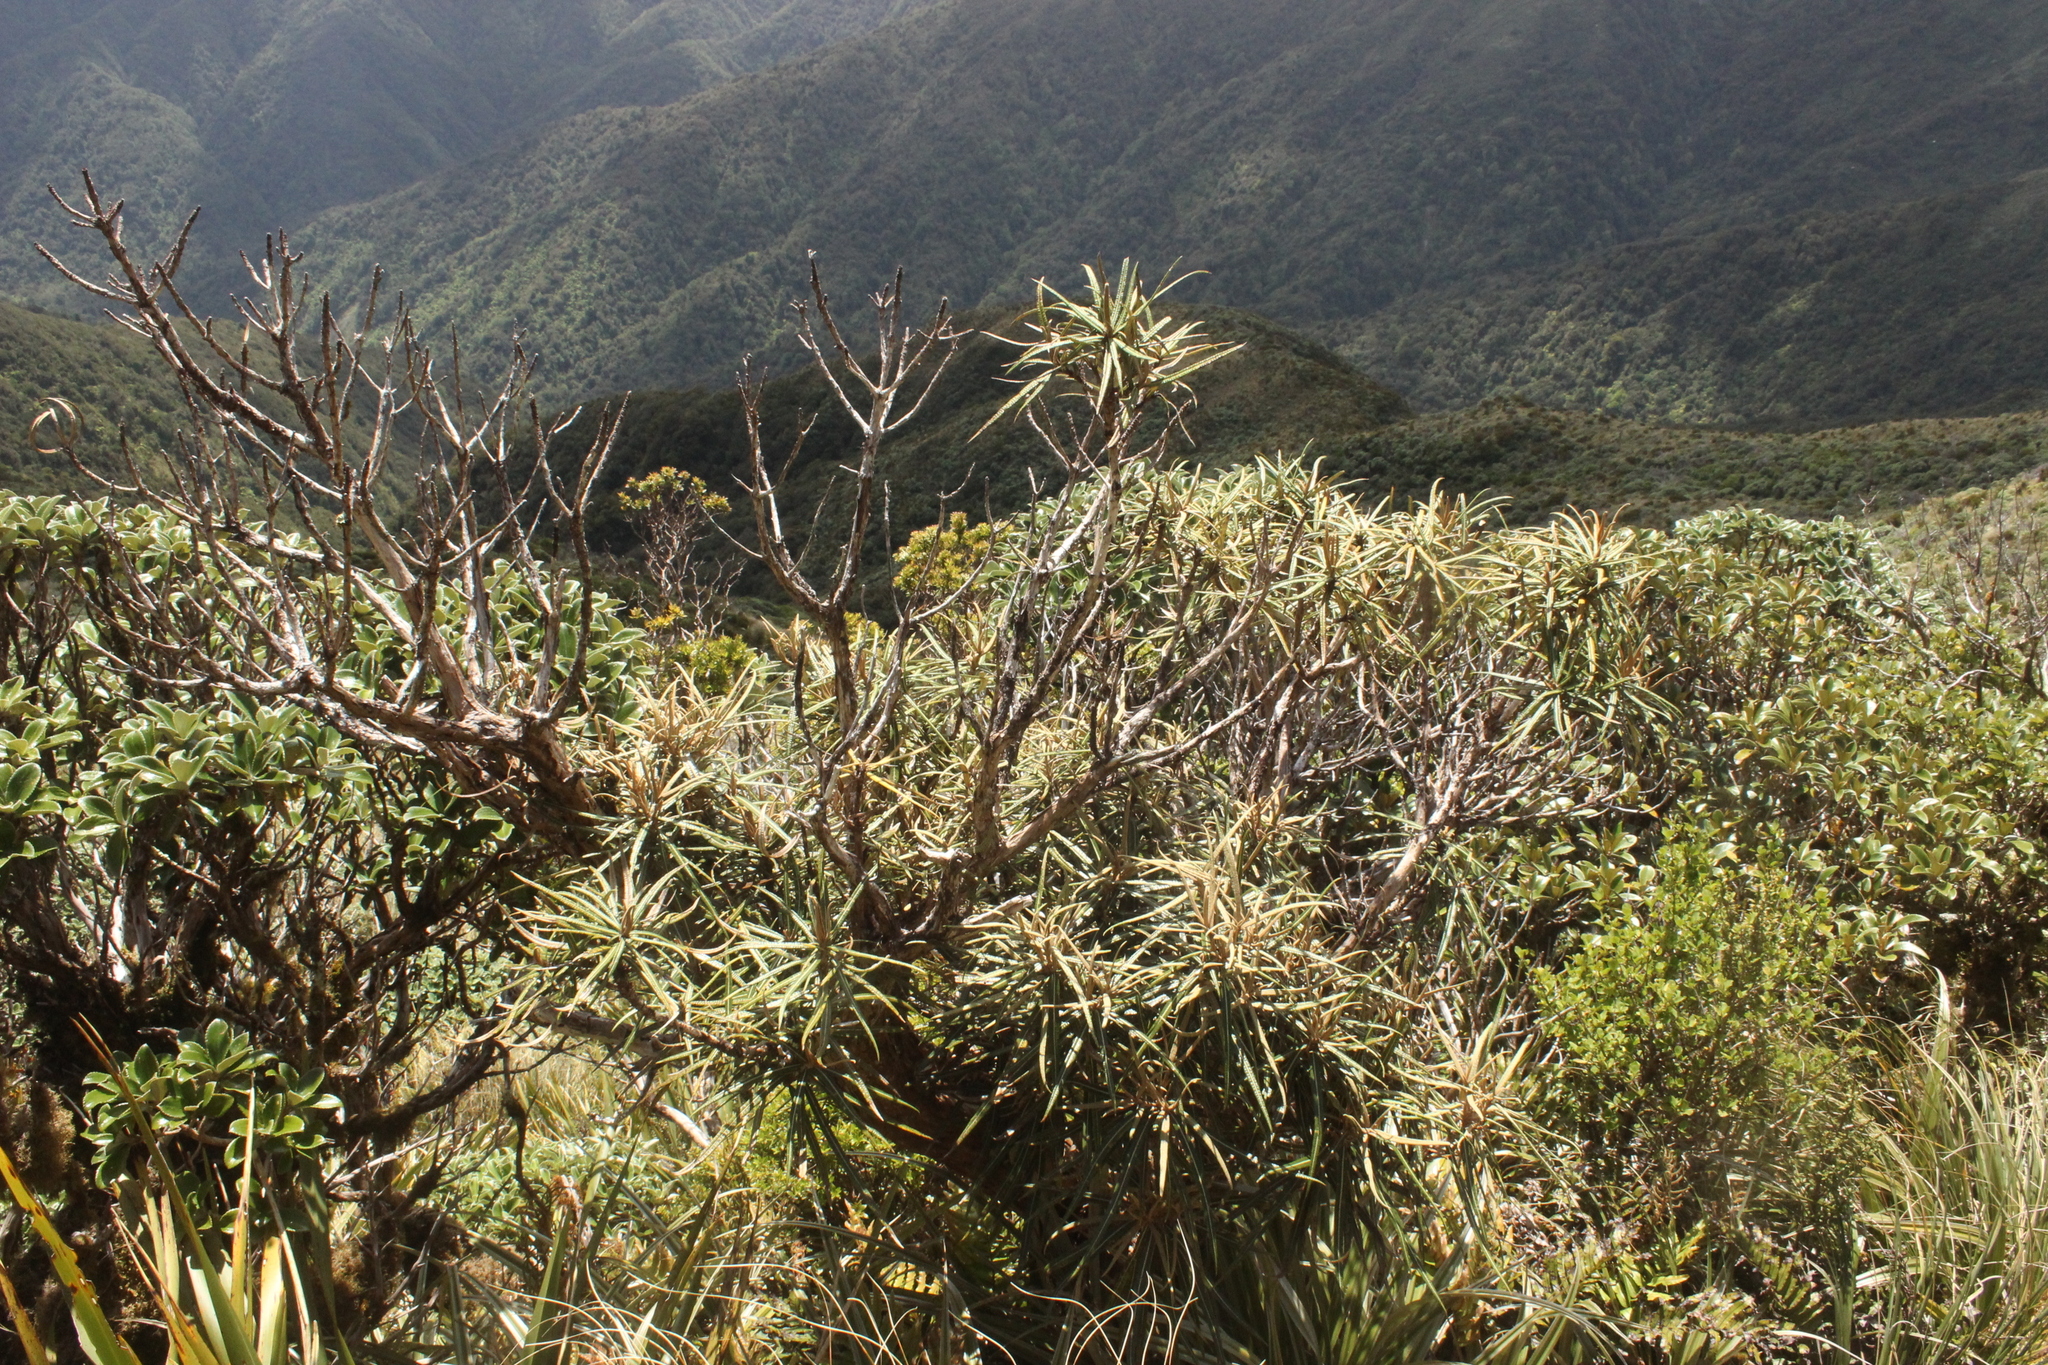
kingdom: Plantae
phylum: Tracheophyta
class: Magnoliopsida
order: Asterales
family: Asteraceae
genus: Olearia
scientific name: Olearia lacunosa
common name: Lancewood tree daisy
